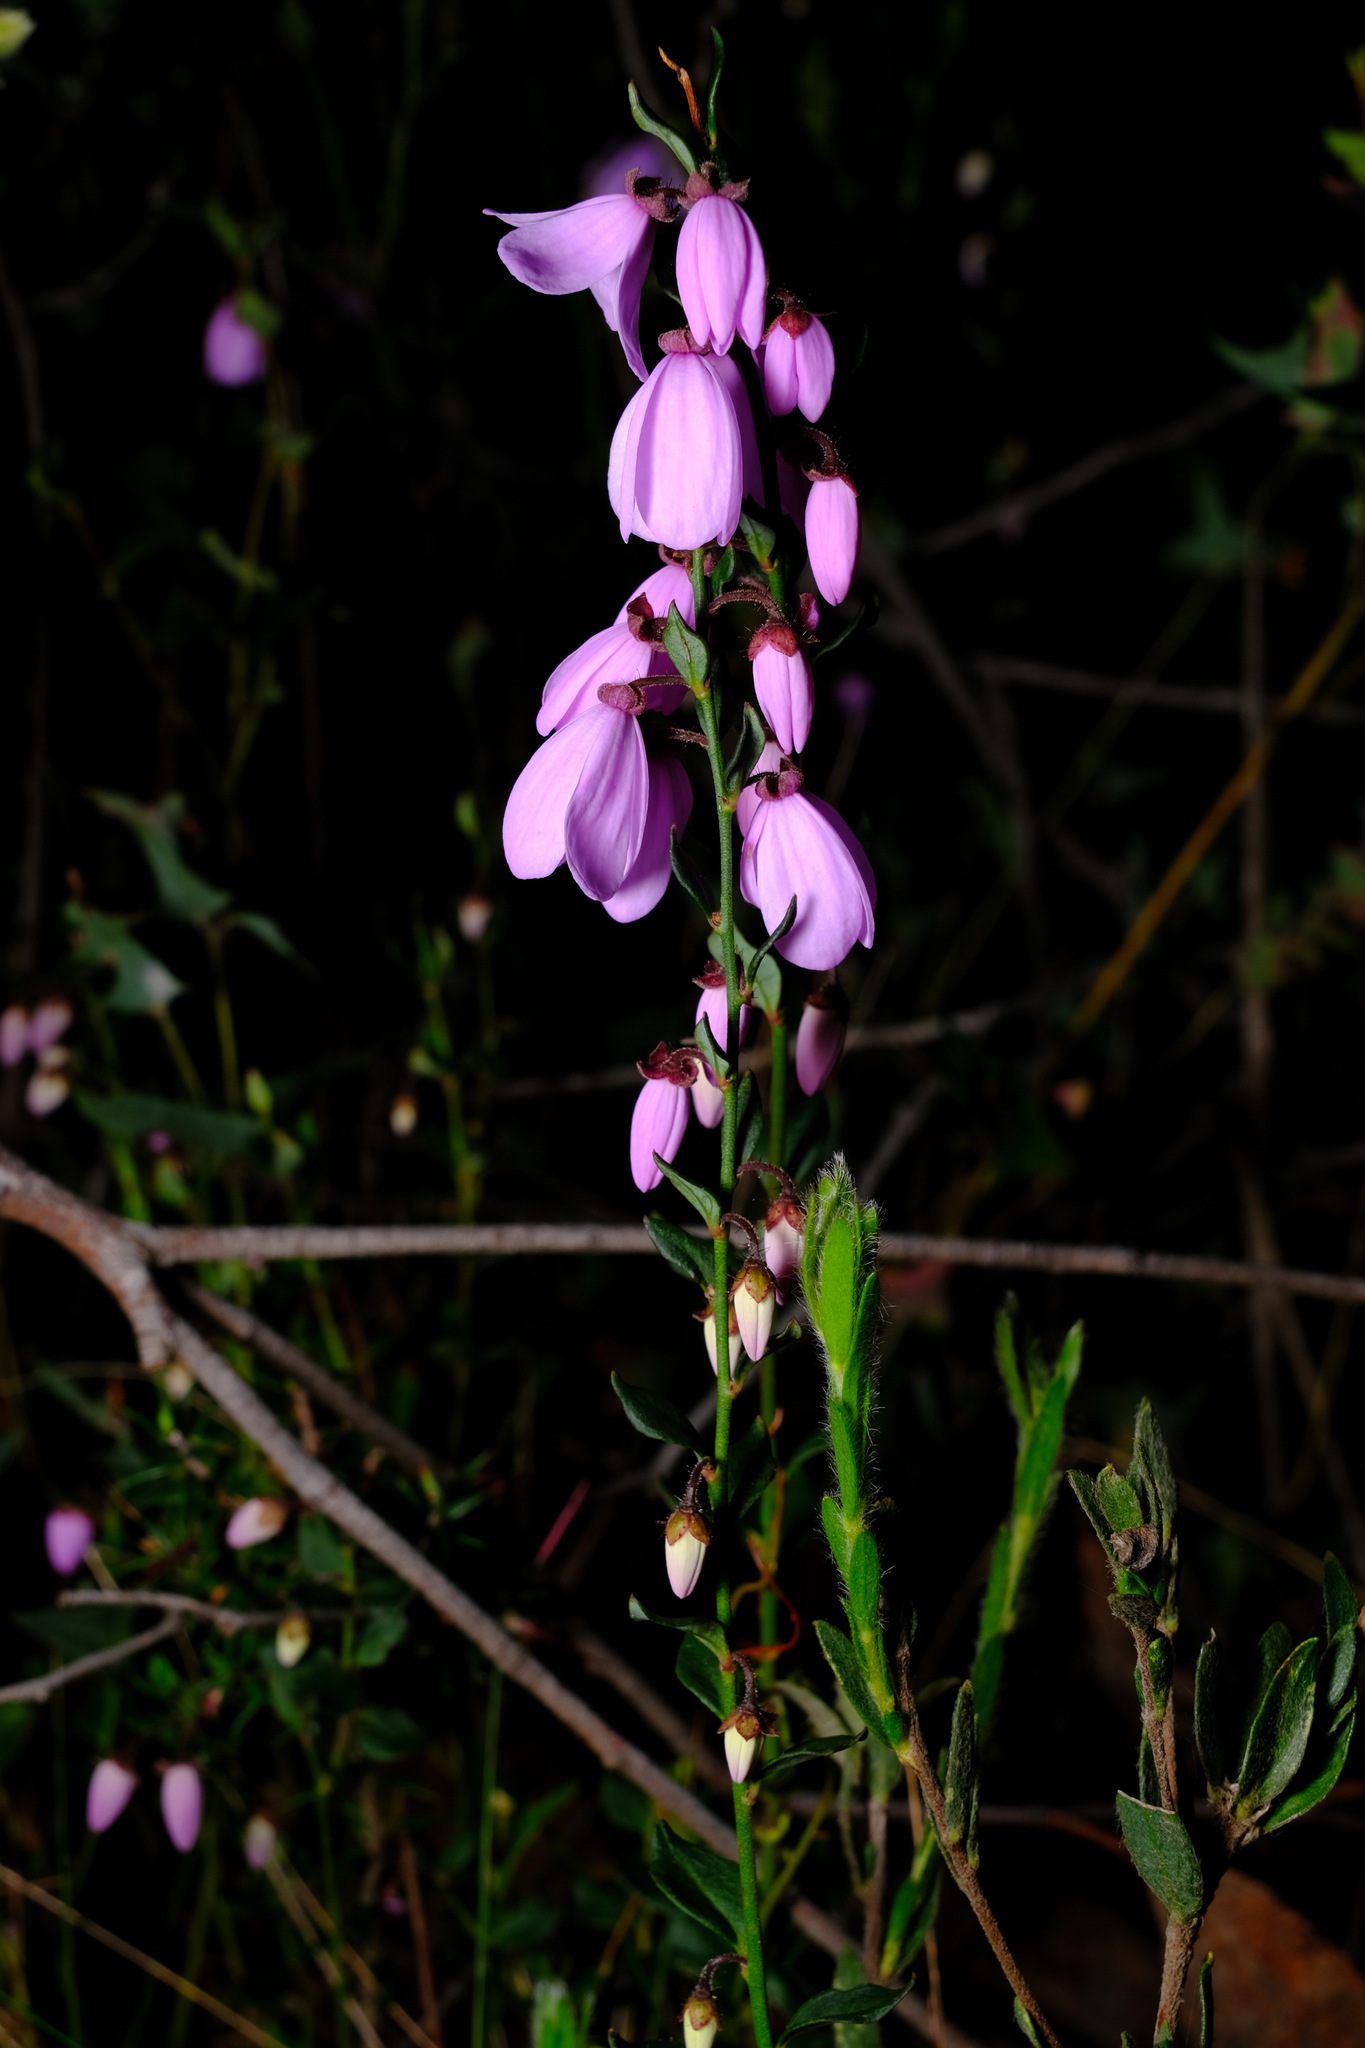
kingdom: Plantae
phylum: Tracheophyta
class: Magnoliopsida
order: Oxalidales
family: Elaeocarpaceae
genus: Tetratheca
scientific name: Tetratheca ciliata
